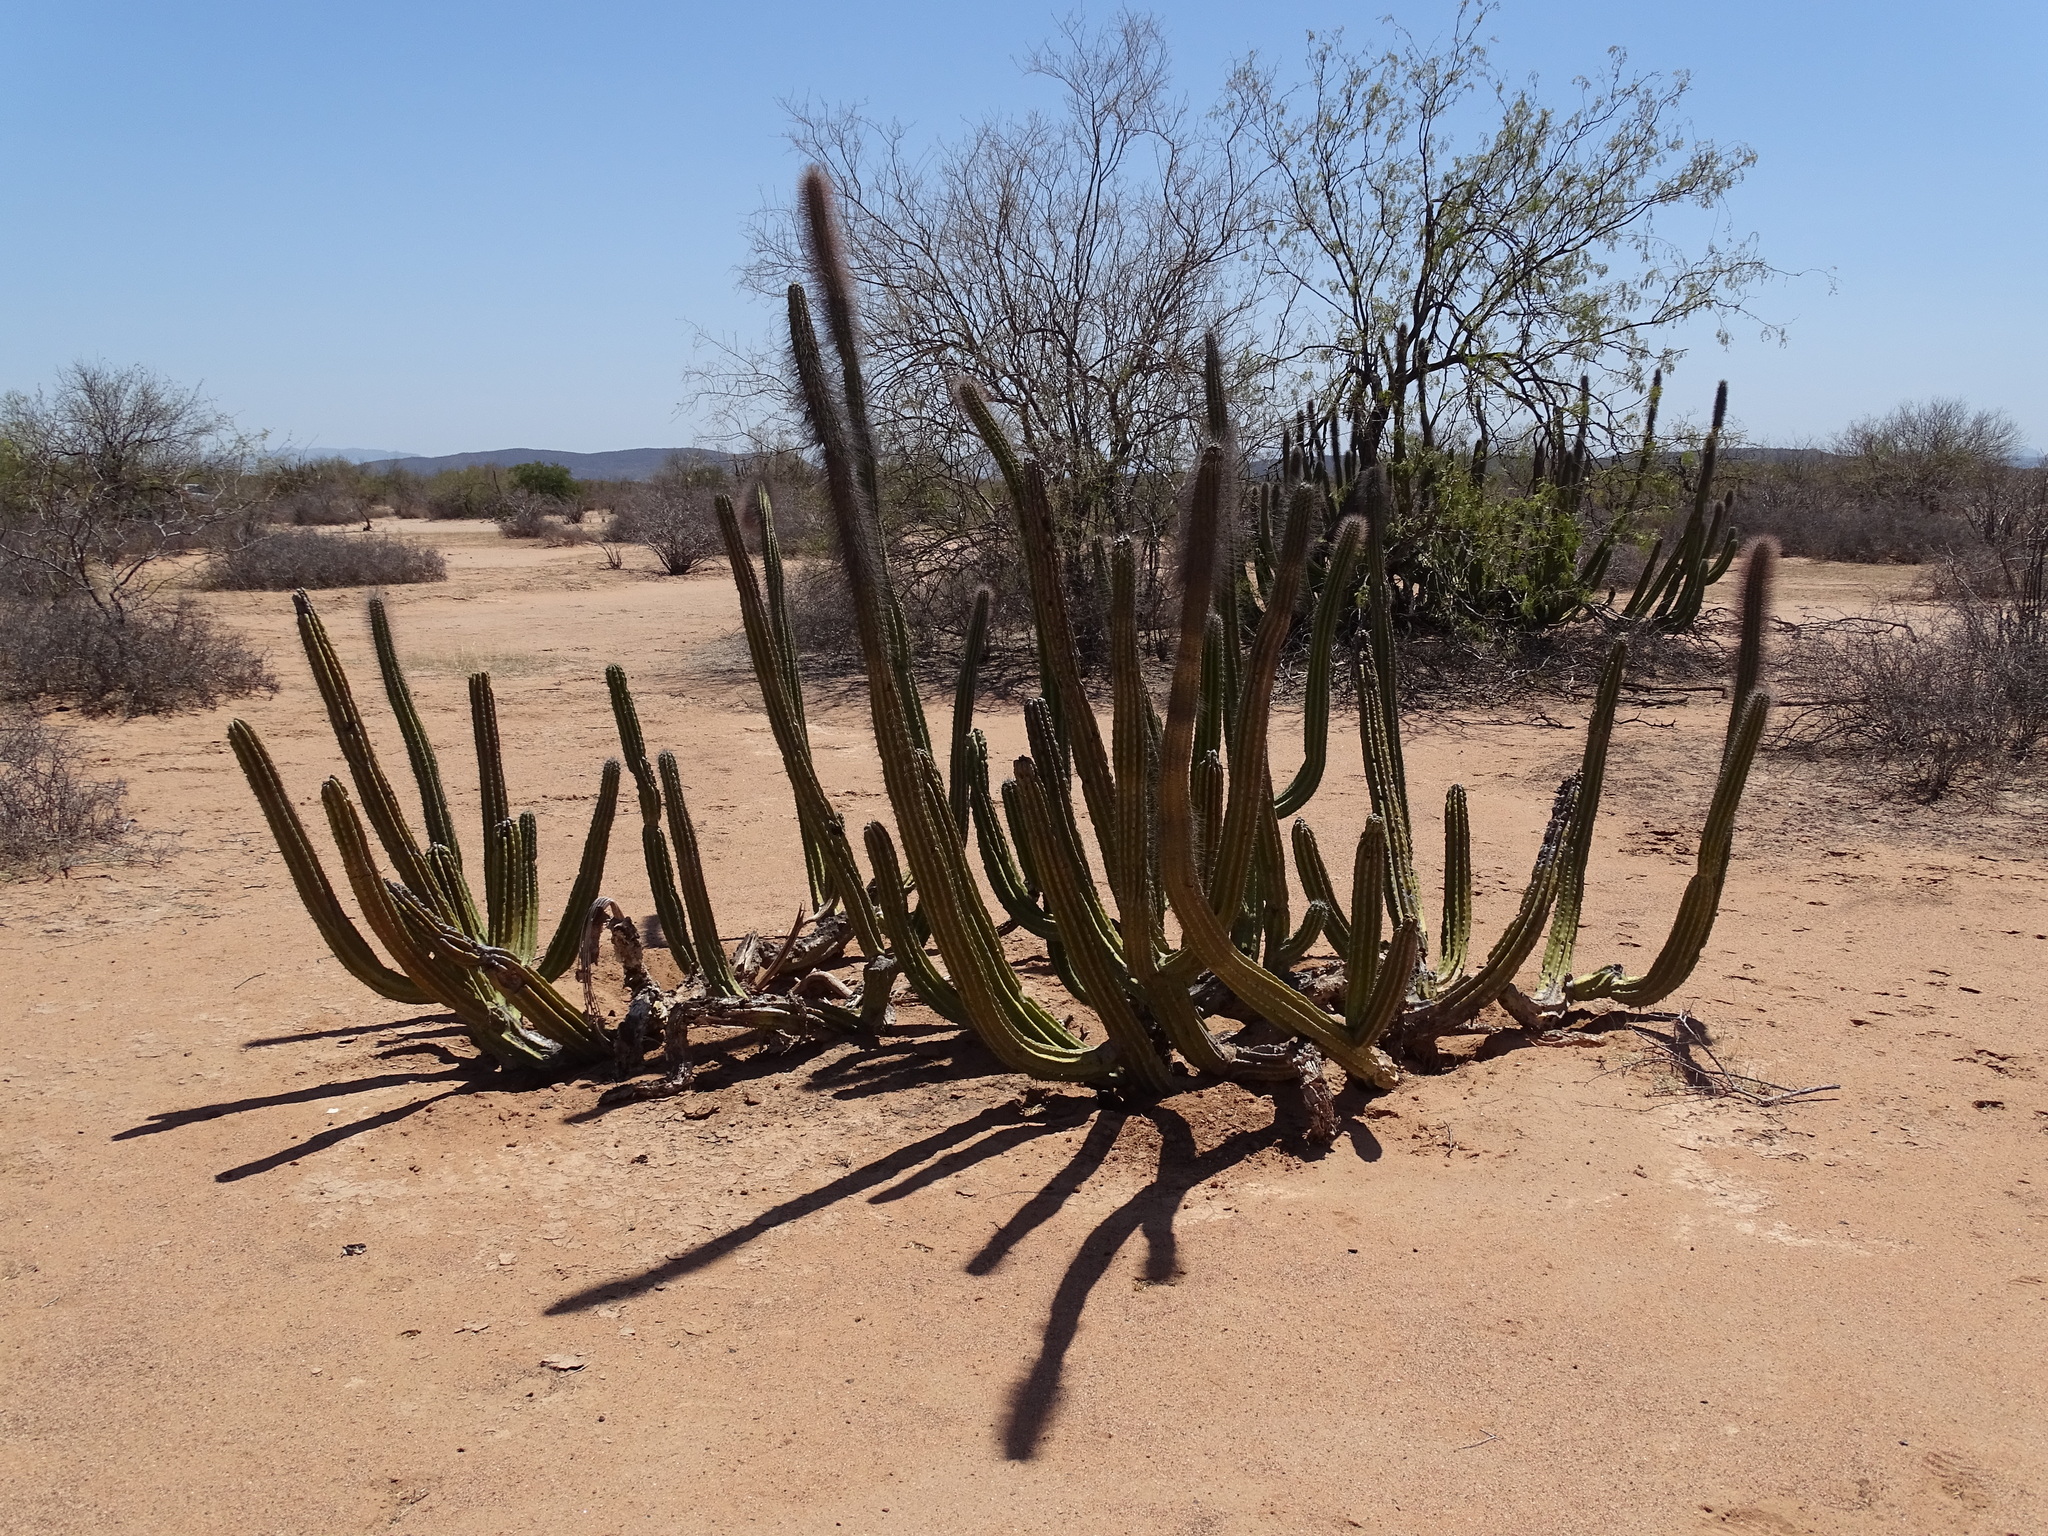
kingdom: Plantae
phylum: Tracheophyta
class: Magnoliopsida
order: Caryophyllales
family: Cactaceae
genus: Pachycereus
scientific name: Pachycereus schottii
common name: Senita cactus
